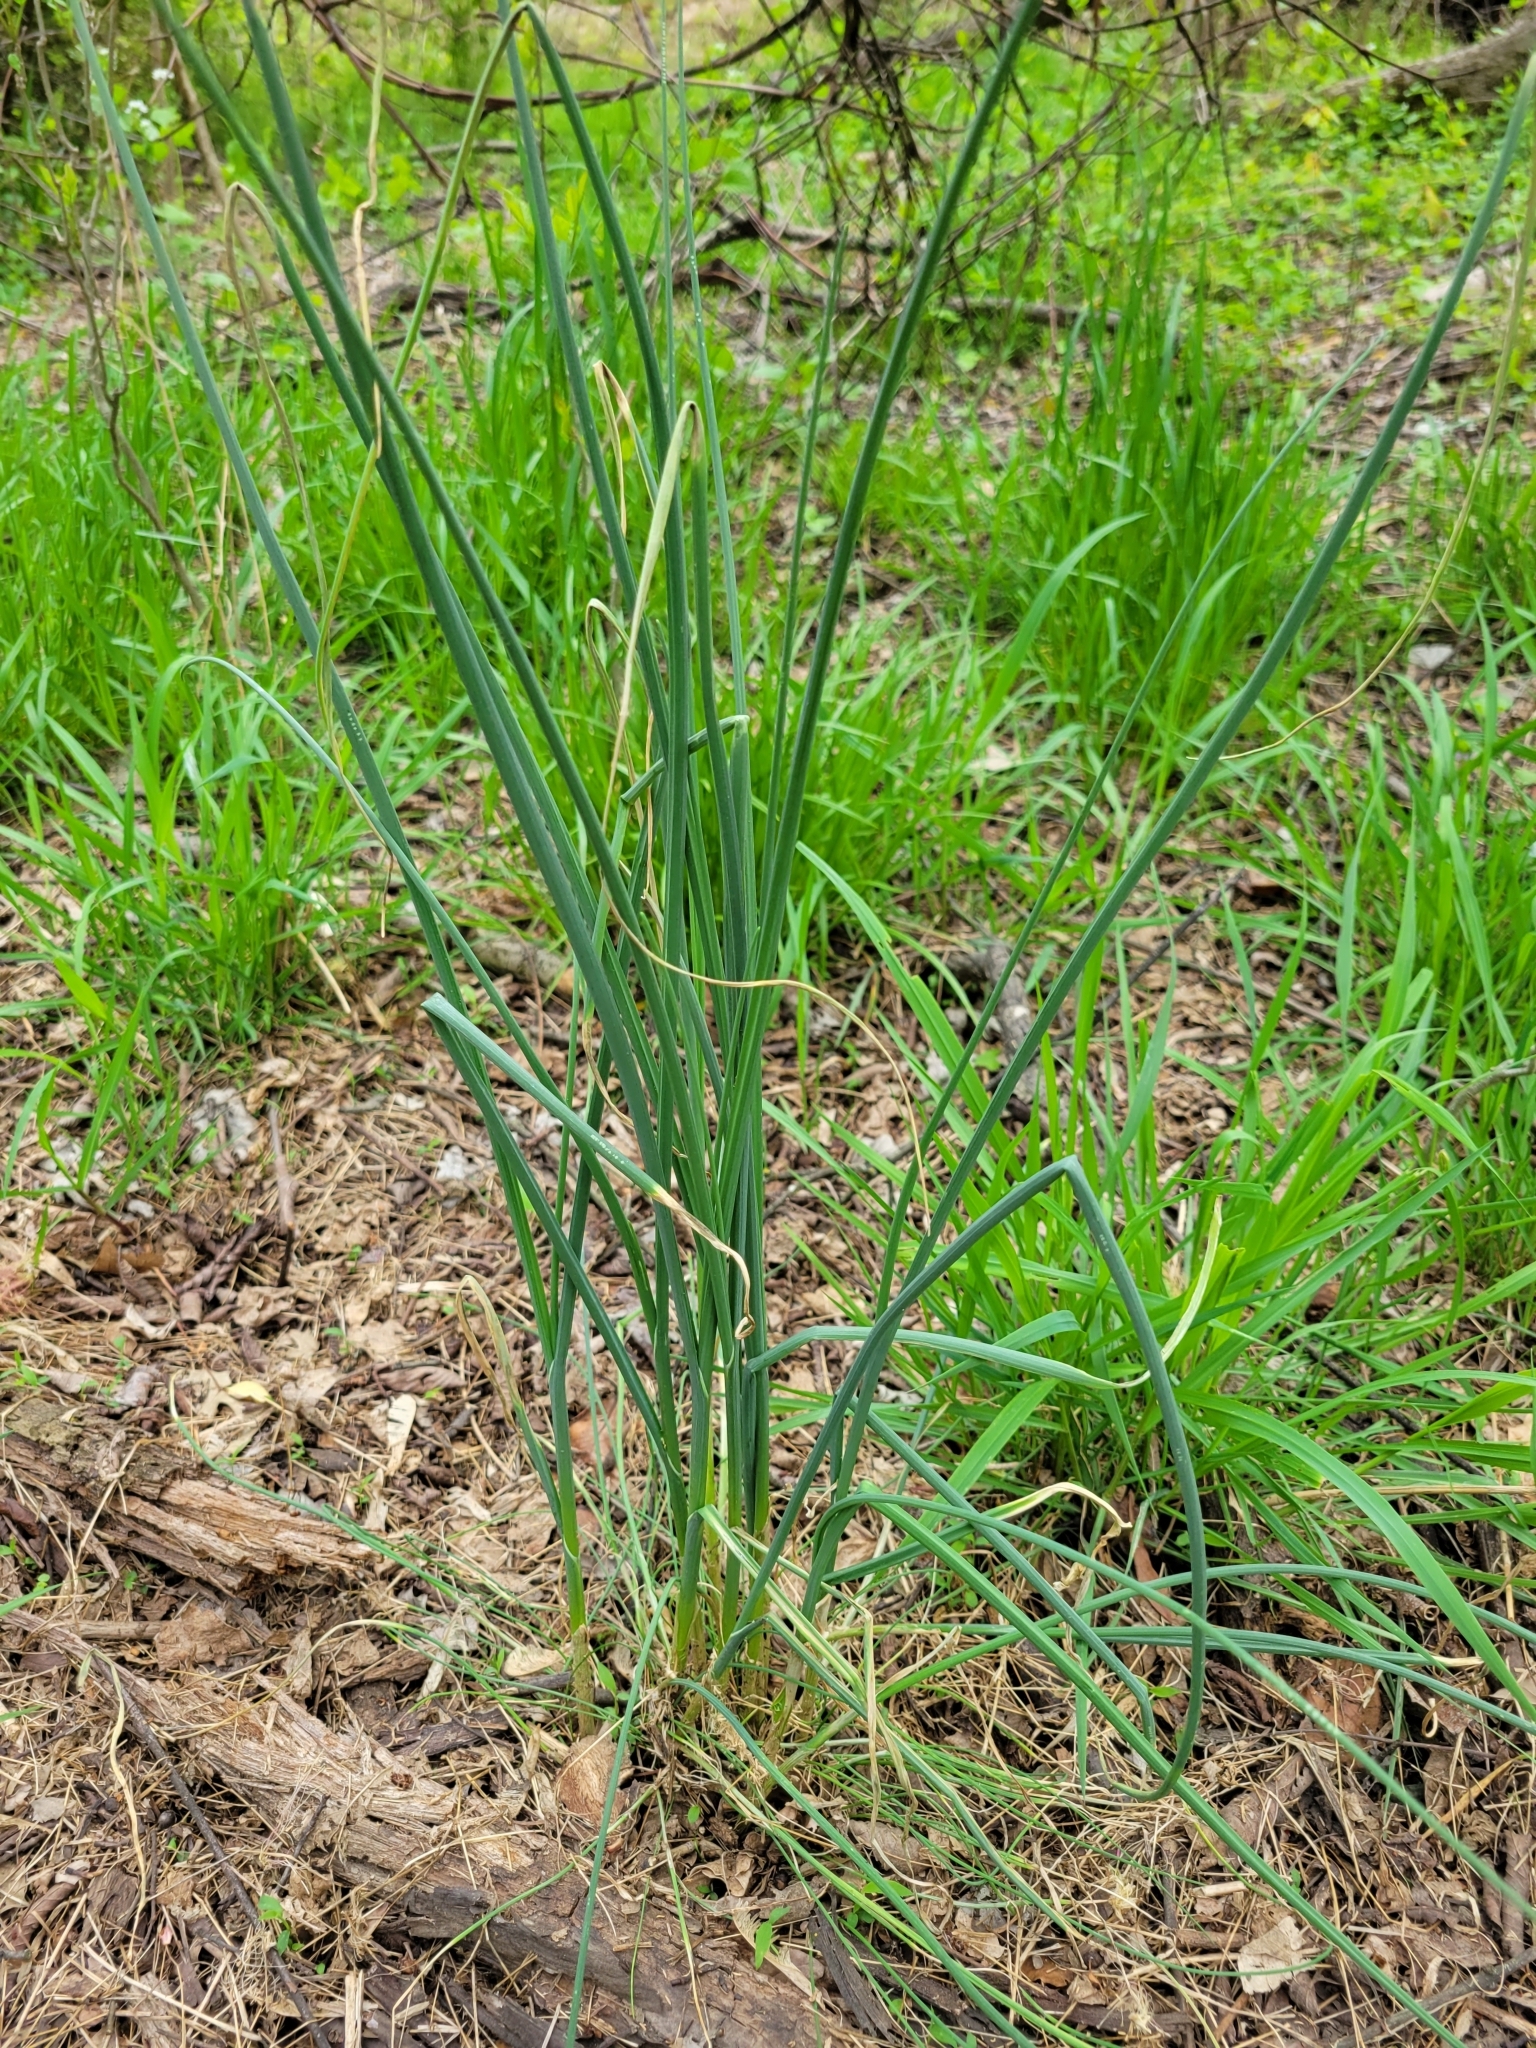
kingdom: Plantae
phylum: Tracheophyta
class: Liliopsida
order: Asparagales
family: Amaryllidaceae
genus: Allium
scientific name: Allium vineale
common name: Crow garlic
